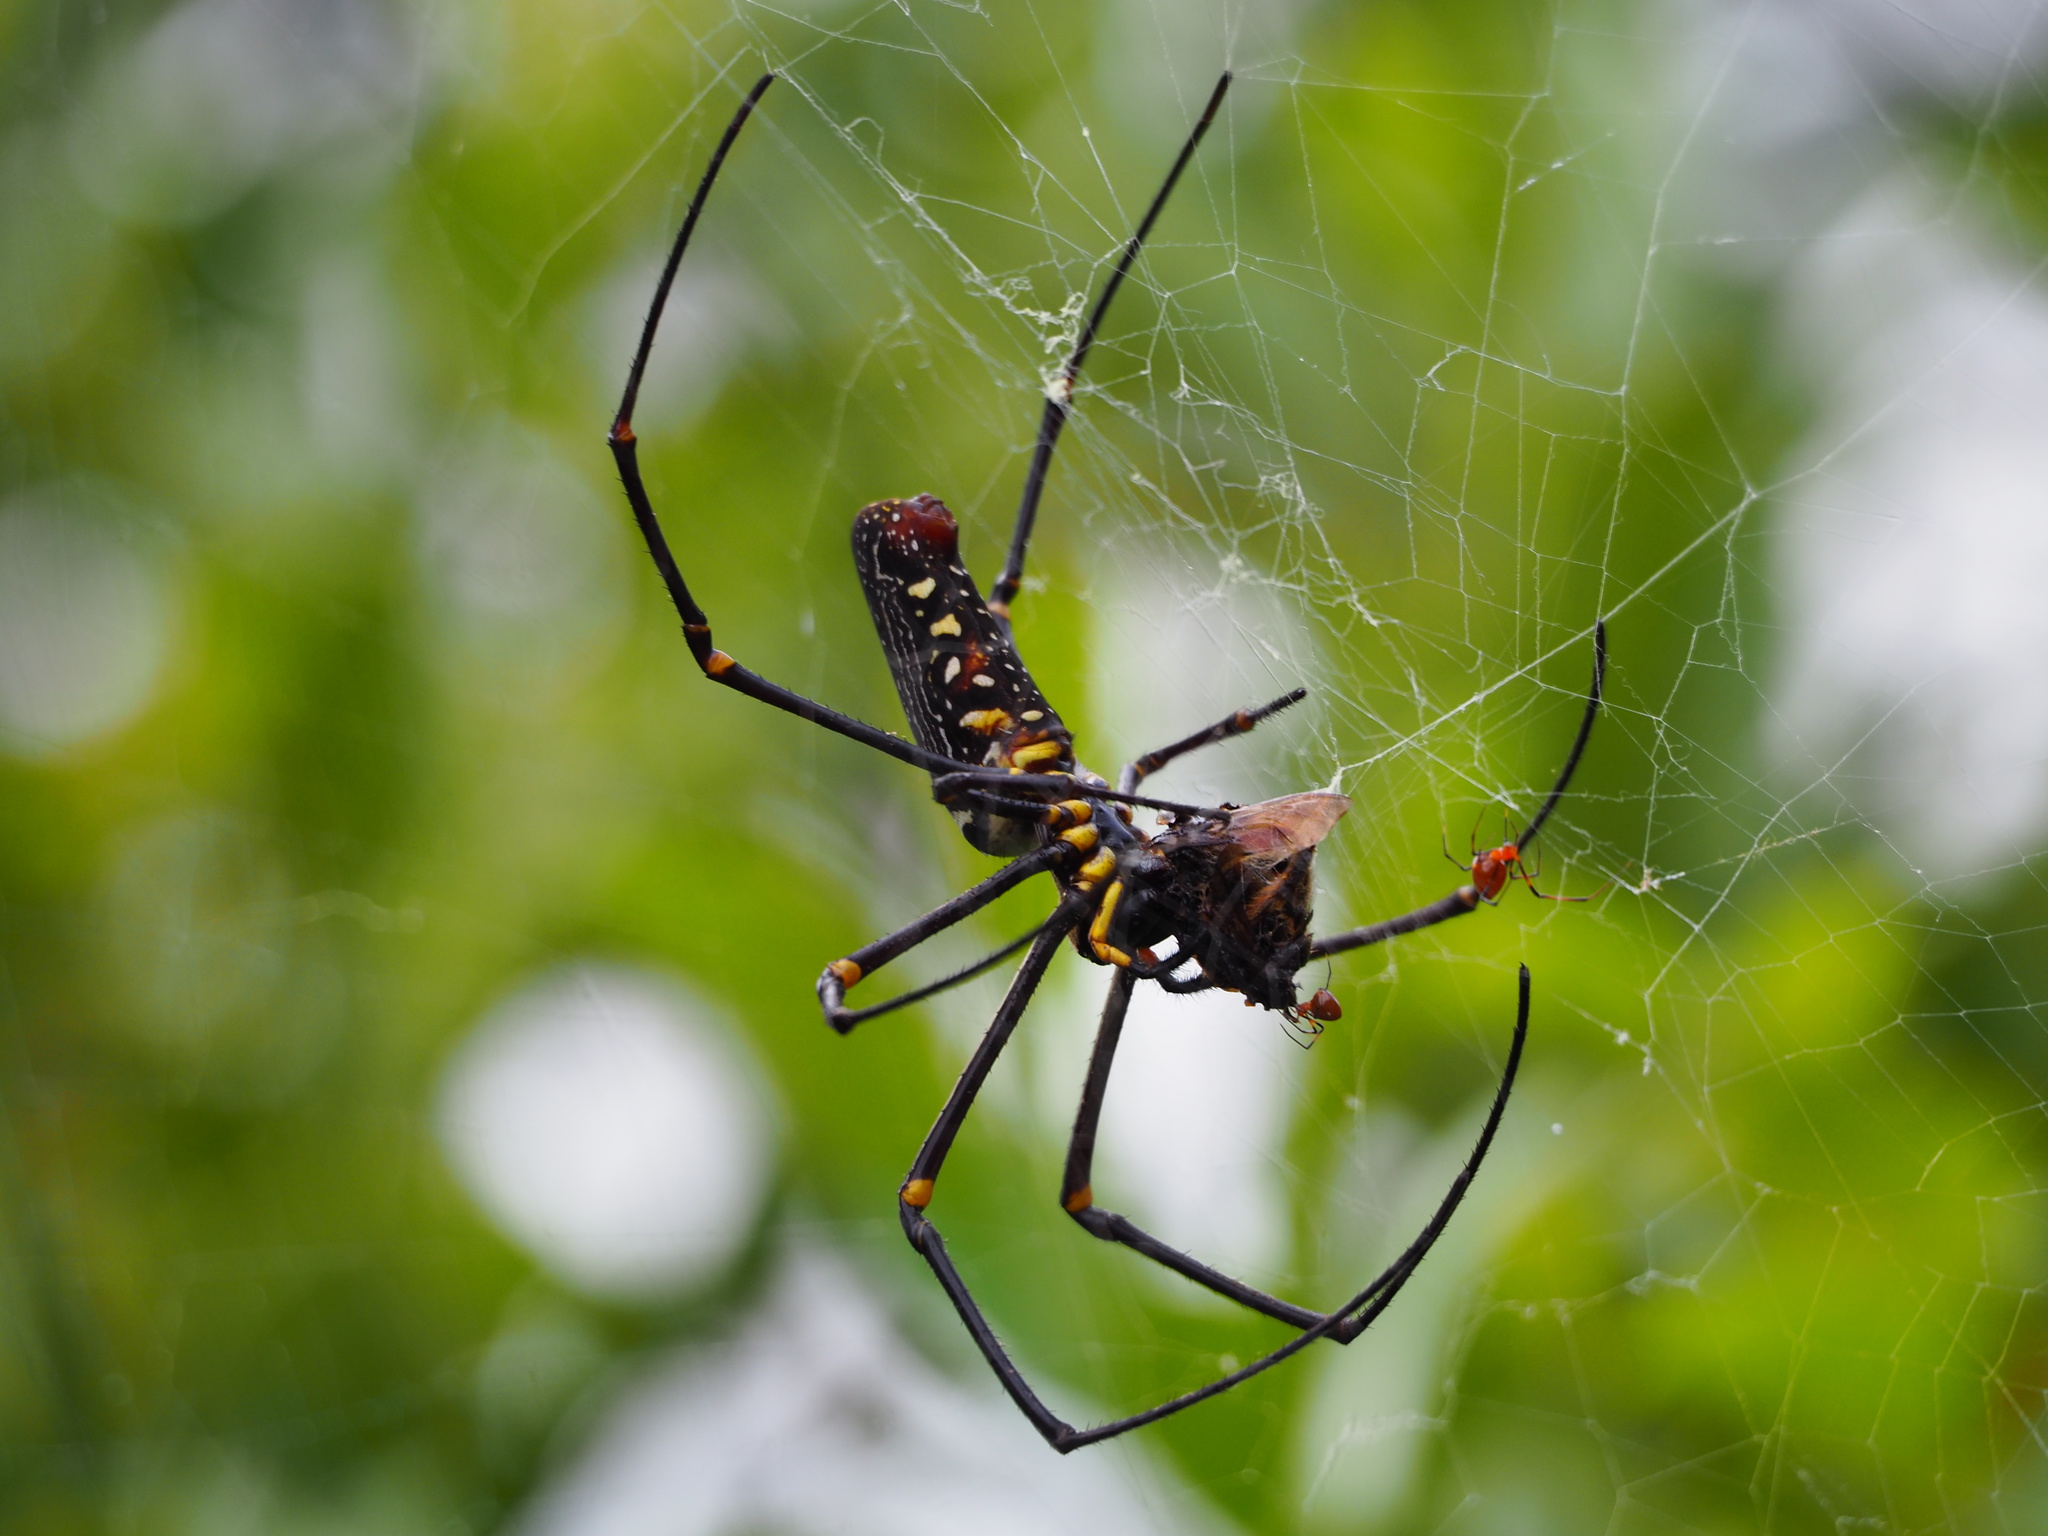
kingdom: Animalia
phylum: Arthropoda
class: Arachnida
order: Araneae
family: Araneidae
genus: Nephila
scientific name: Nephila pilipes
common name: Giant golden orb weaver
